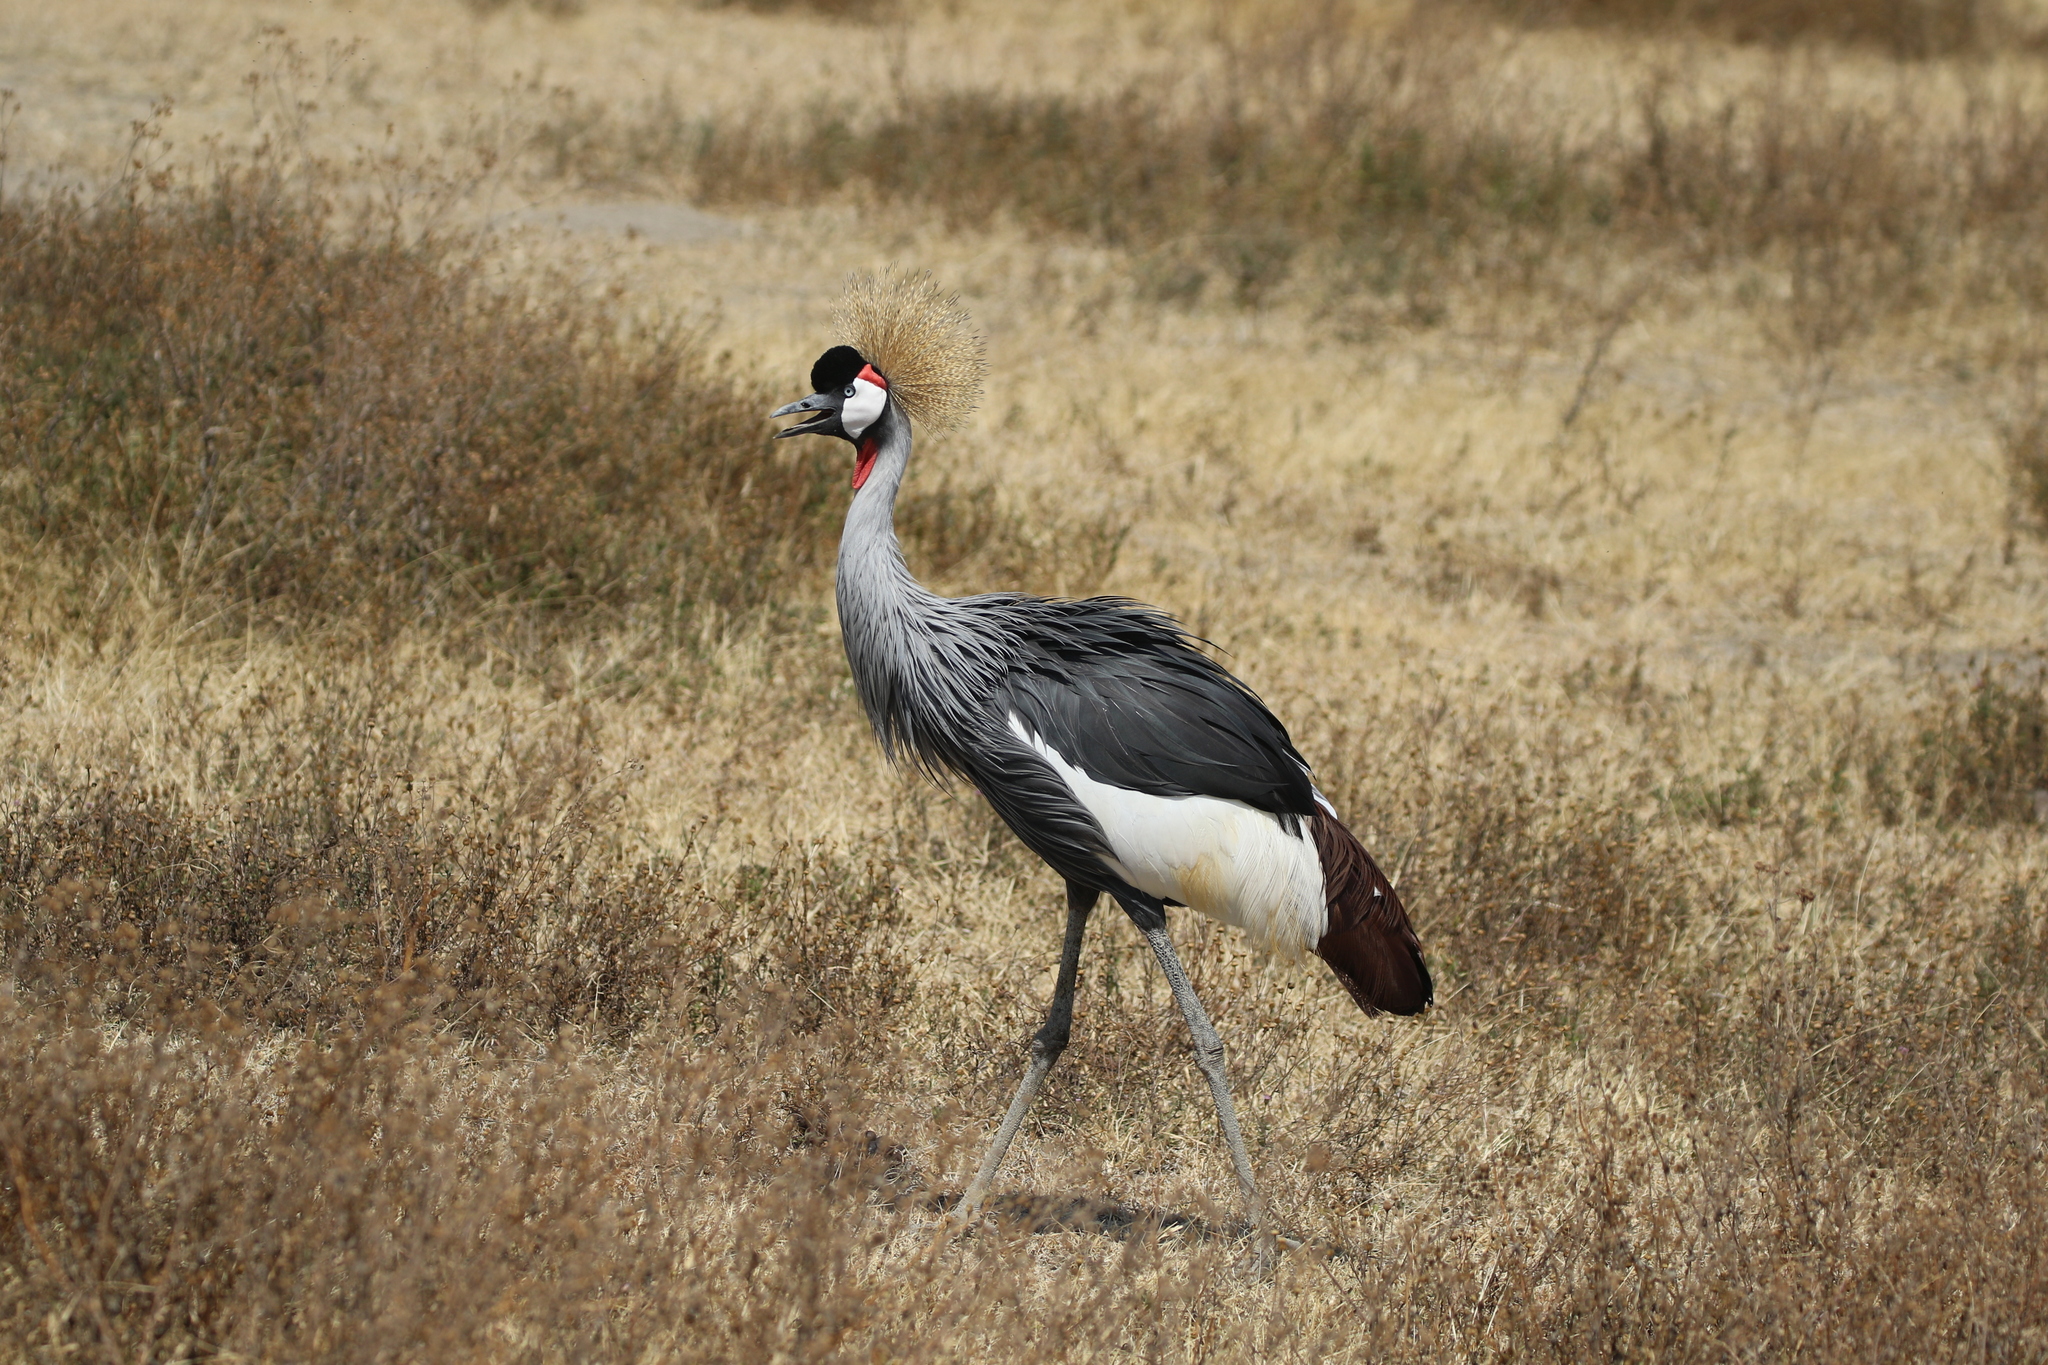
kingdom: Animalia
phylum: Chordata
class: Aves
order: Gruiformes
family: Gruidae
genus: Balearica
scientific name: Balearica regulorum
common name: Grey crowned crane
